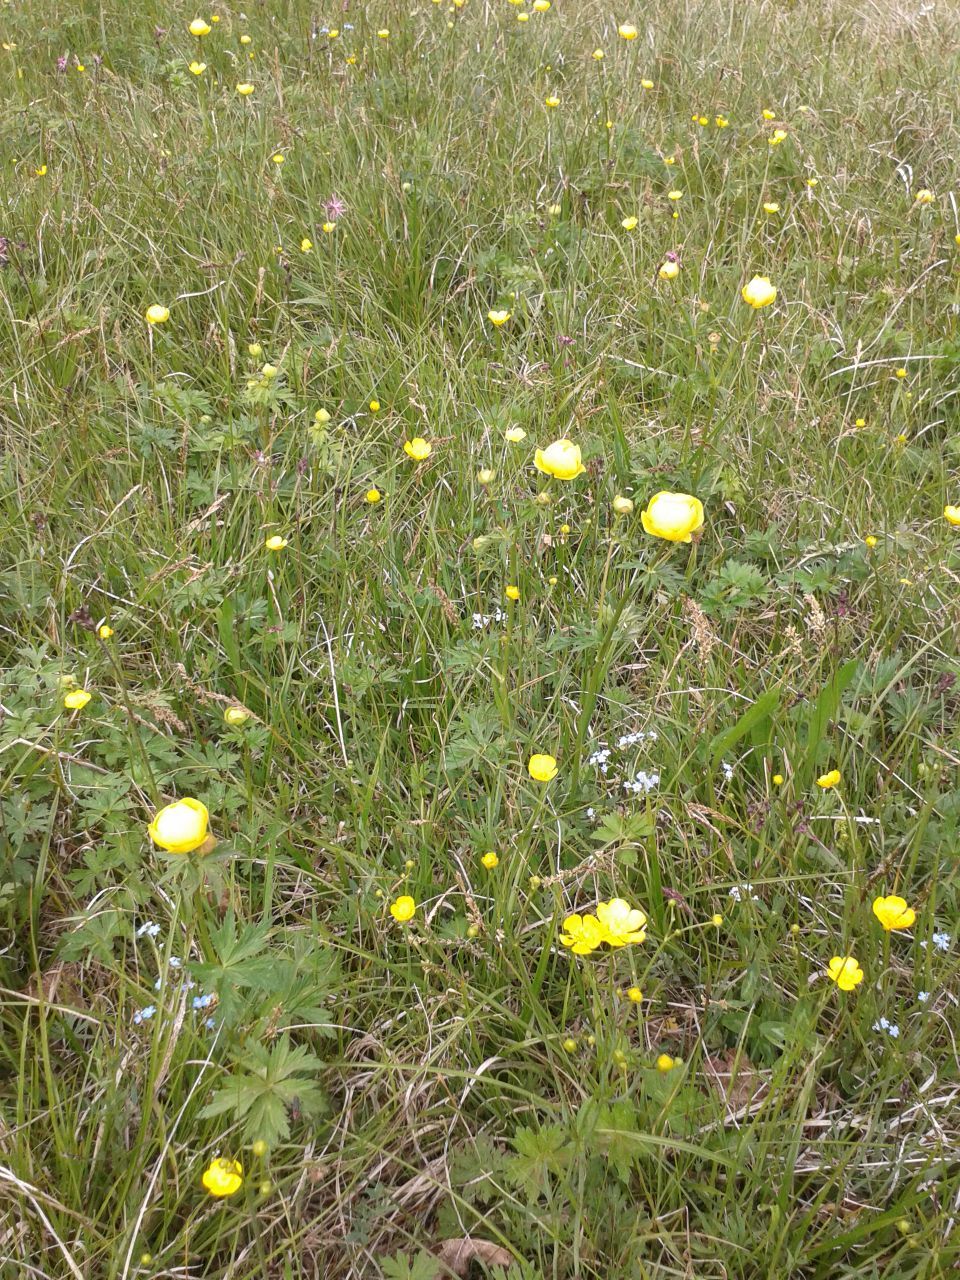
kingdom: Plantae
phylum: Tracheophyta
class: Magnoliopsida
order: Ranunculales
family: Ranunculaceae
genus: Trollius
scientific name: Trollius europaeus
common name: European globeflower
